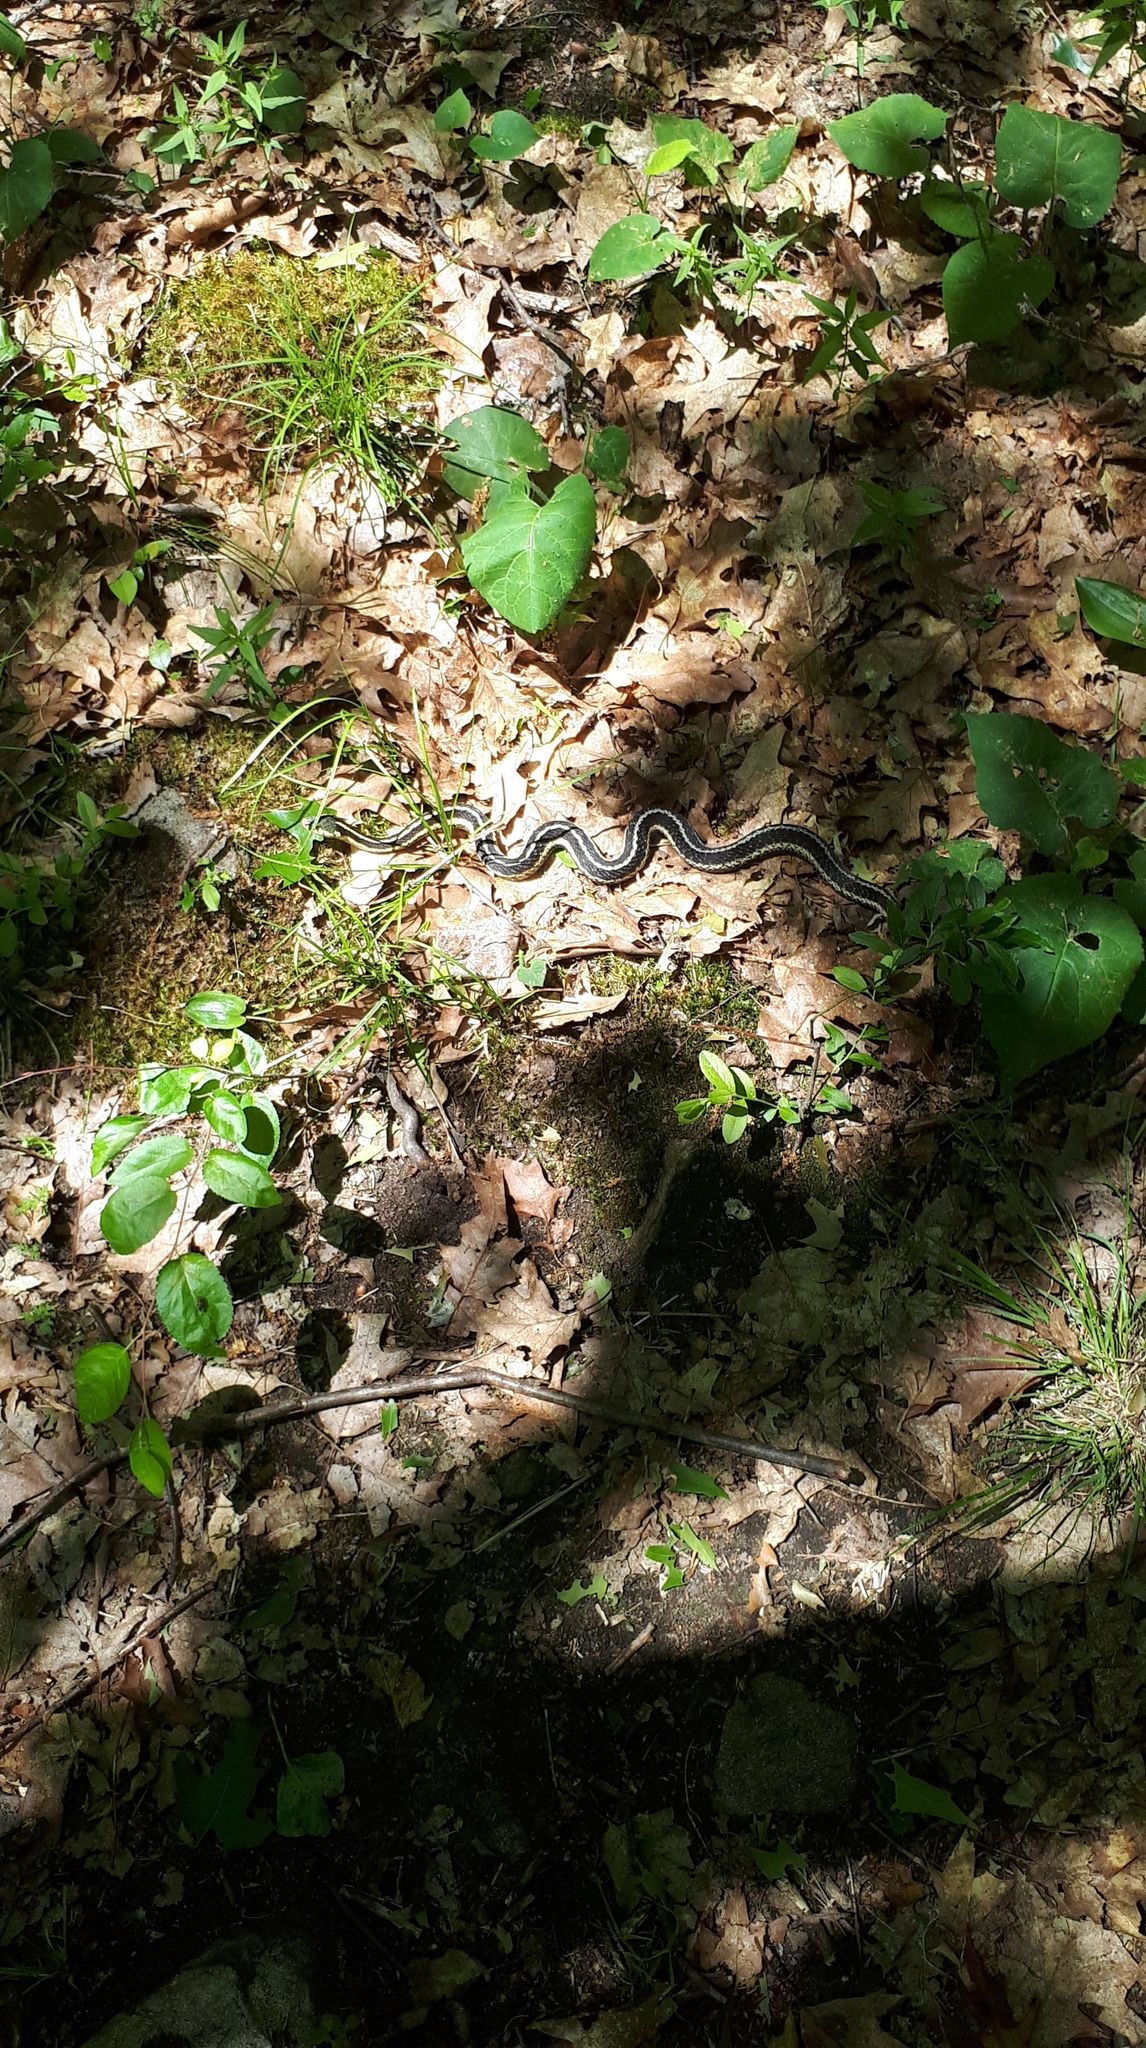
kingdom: Animalia
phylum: Chordata
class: Squamata
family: Colubridae
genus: Thamnophis
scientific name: Thamnophis sirtalis
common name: Common garter snake
